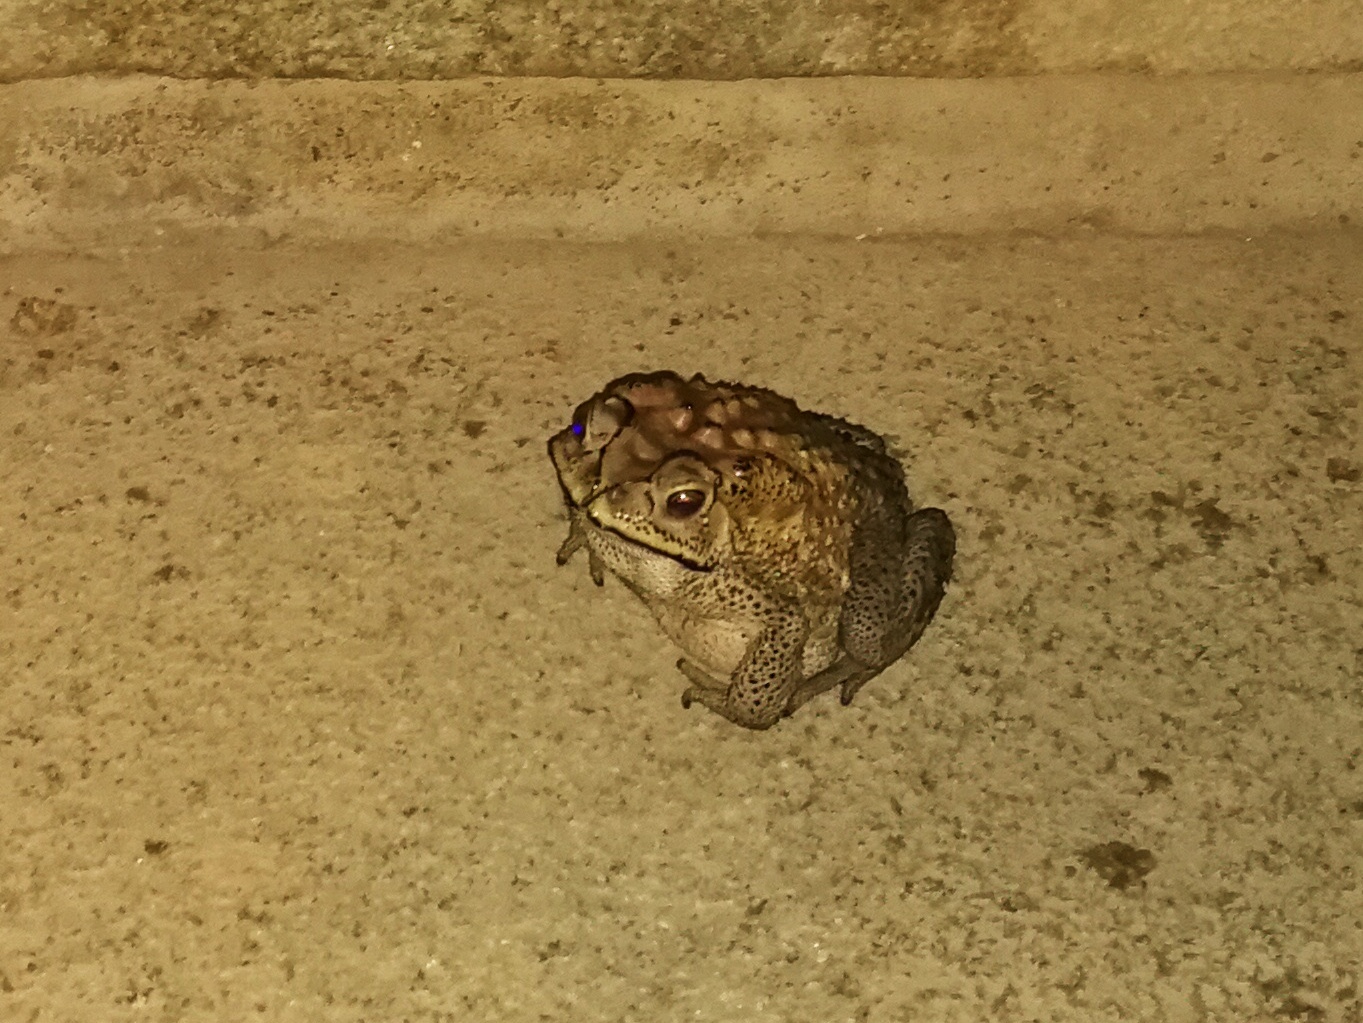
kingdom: Animalia
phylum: Chordata
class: Amphibia
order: Anura
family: Bufonidae
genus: Duttaphrynus
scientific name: Duttaphrynus melanostictus
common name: Common sunda toad
